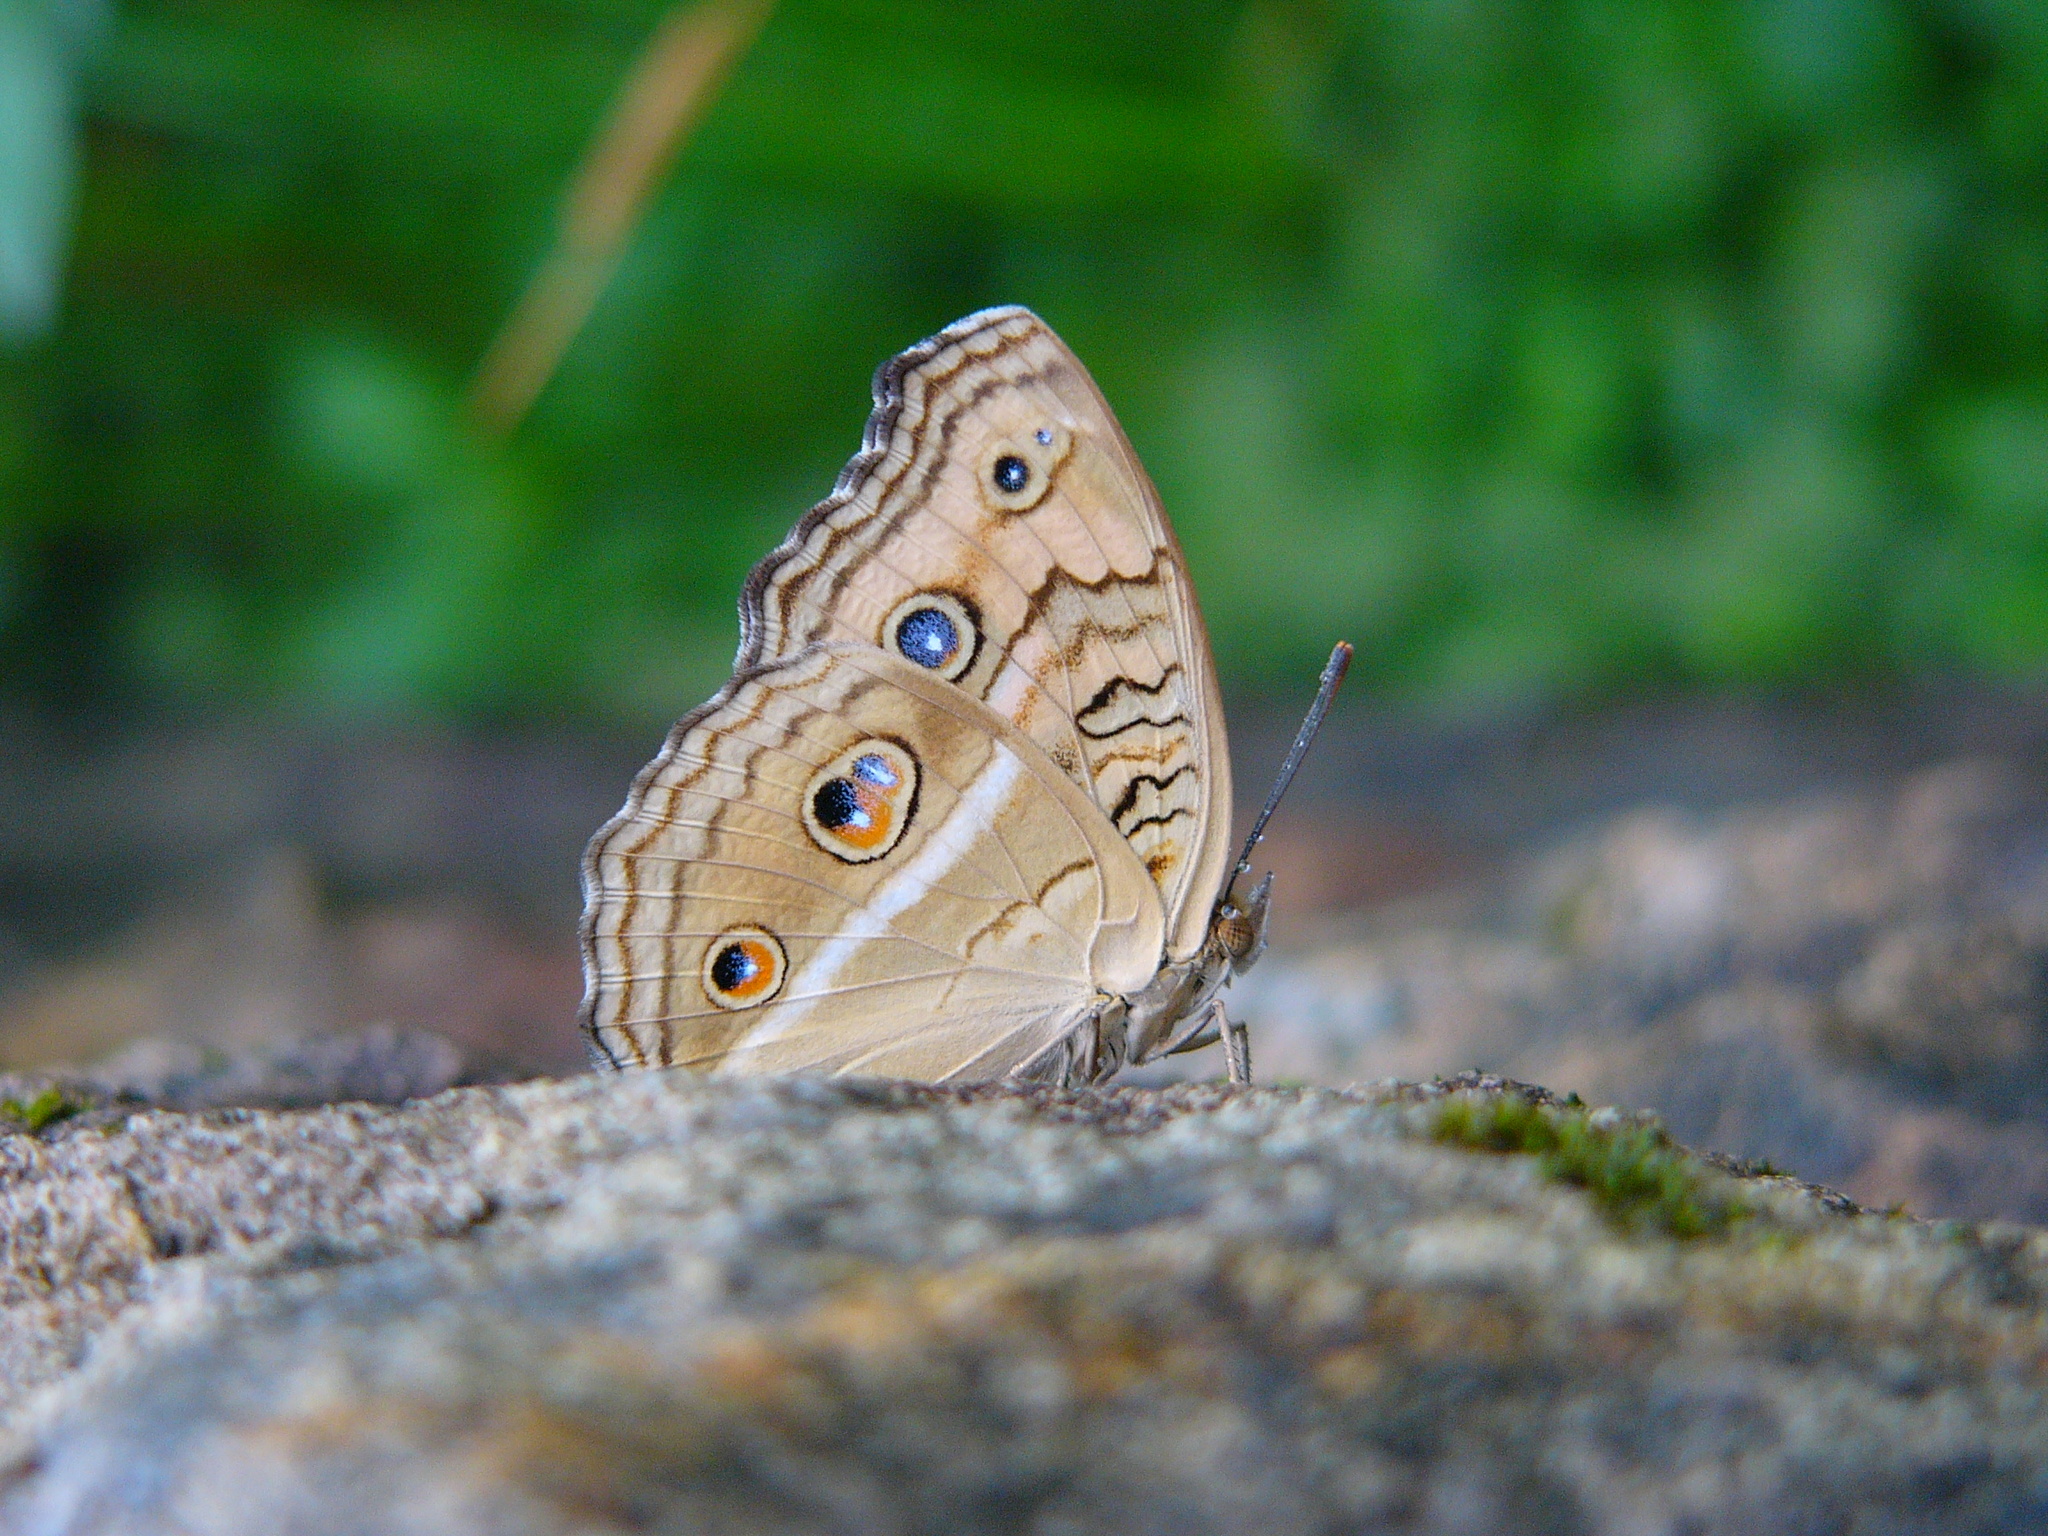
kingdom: Animalia
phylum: Arthropoda
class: Insecta
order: Lepidoptera
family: Nymphalidae
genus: Junonia
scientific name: Junonia almana
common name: Peacock pansy
